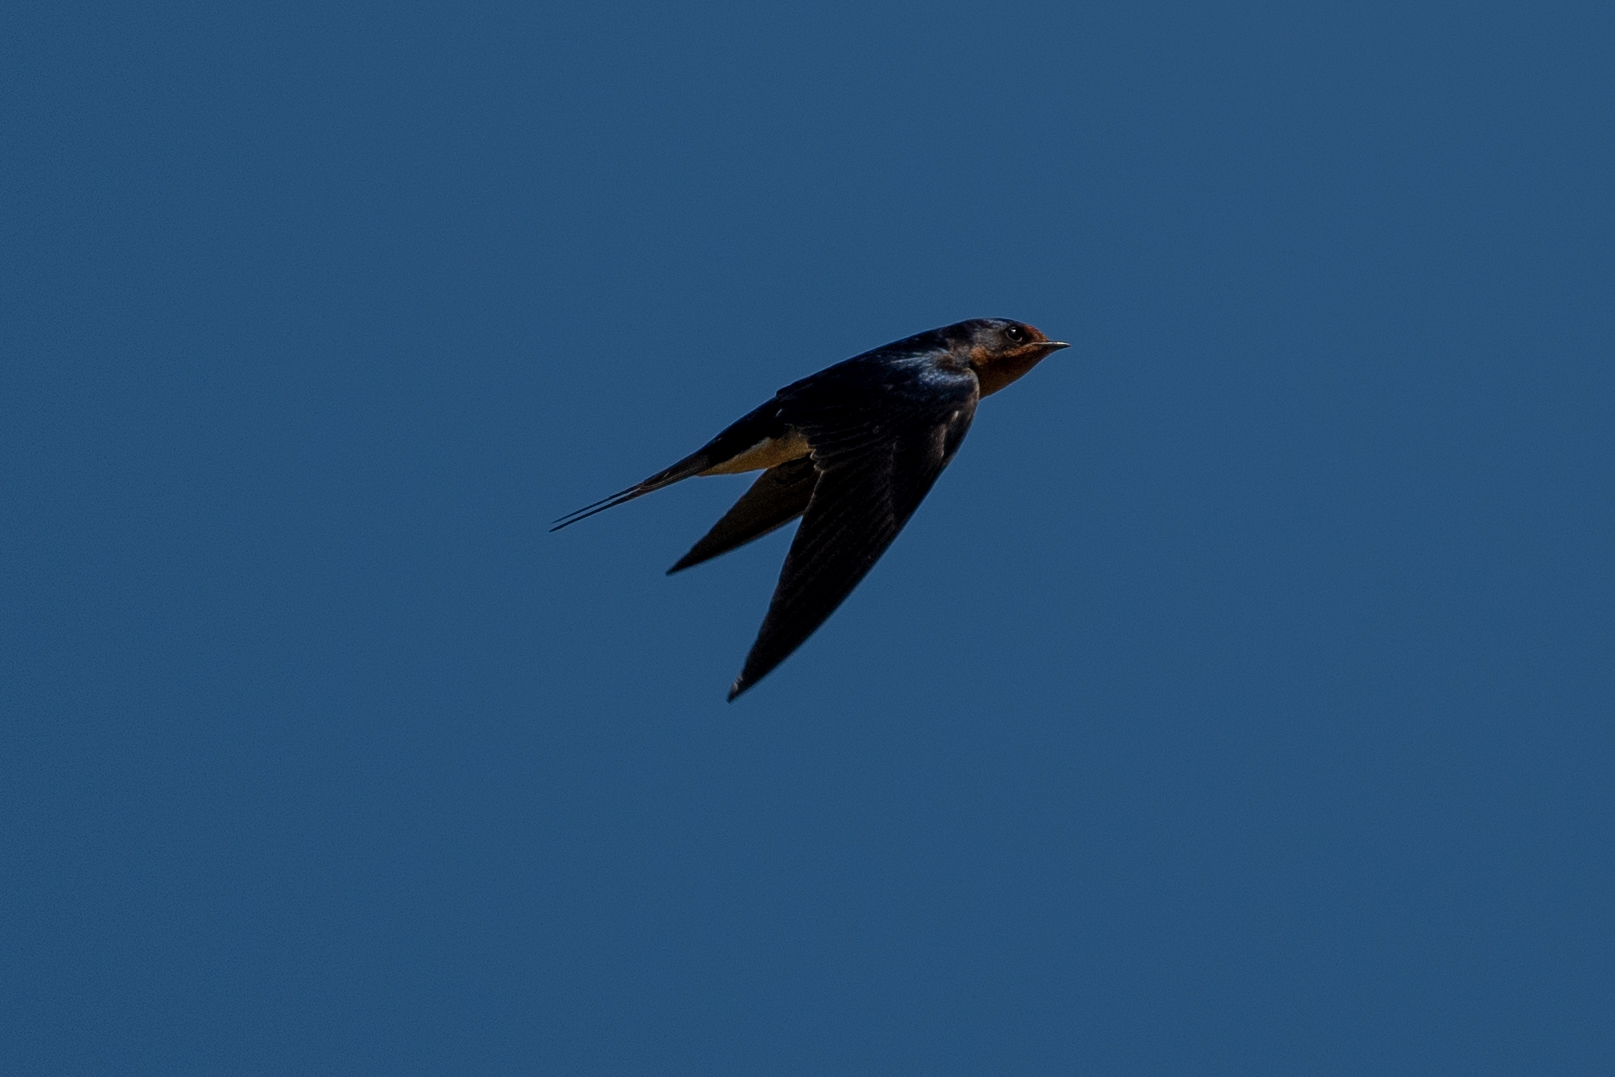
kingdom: Animalia
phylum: Chordata
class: Aves
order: Passeriformes
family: Hirundinidae
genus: Hirundo
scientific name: Hirundo rustica
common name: Barn swallow
